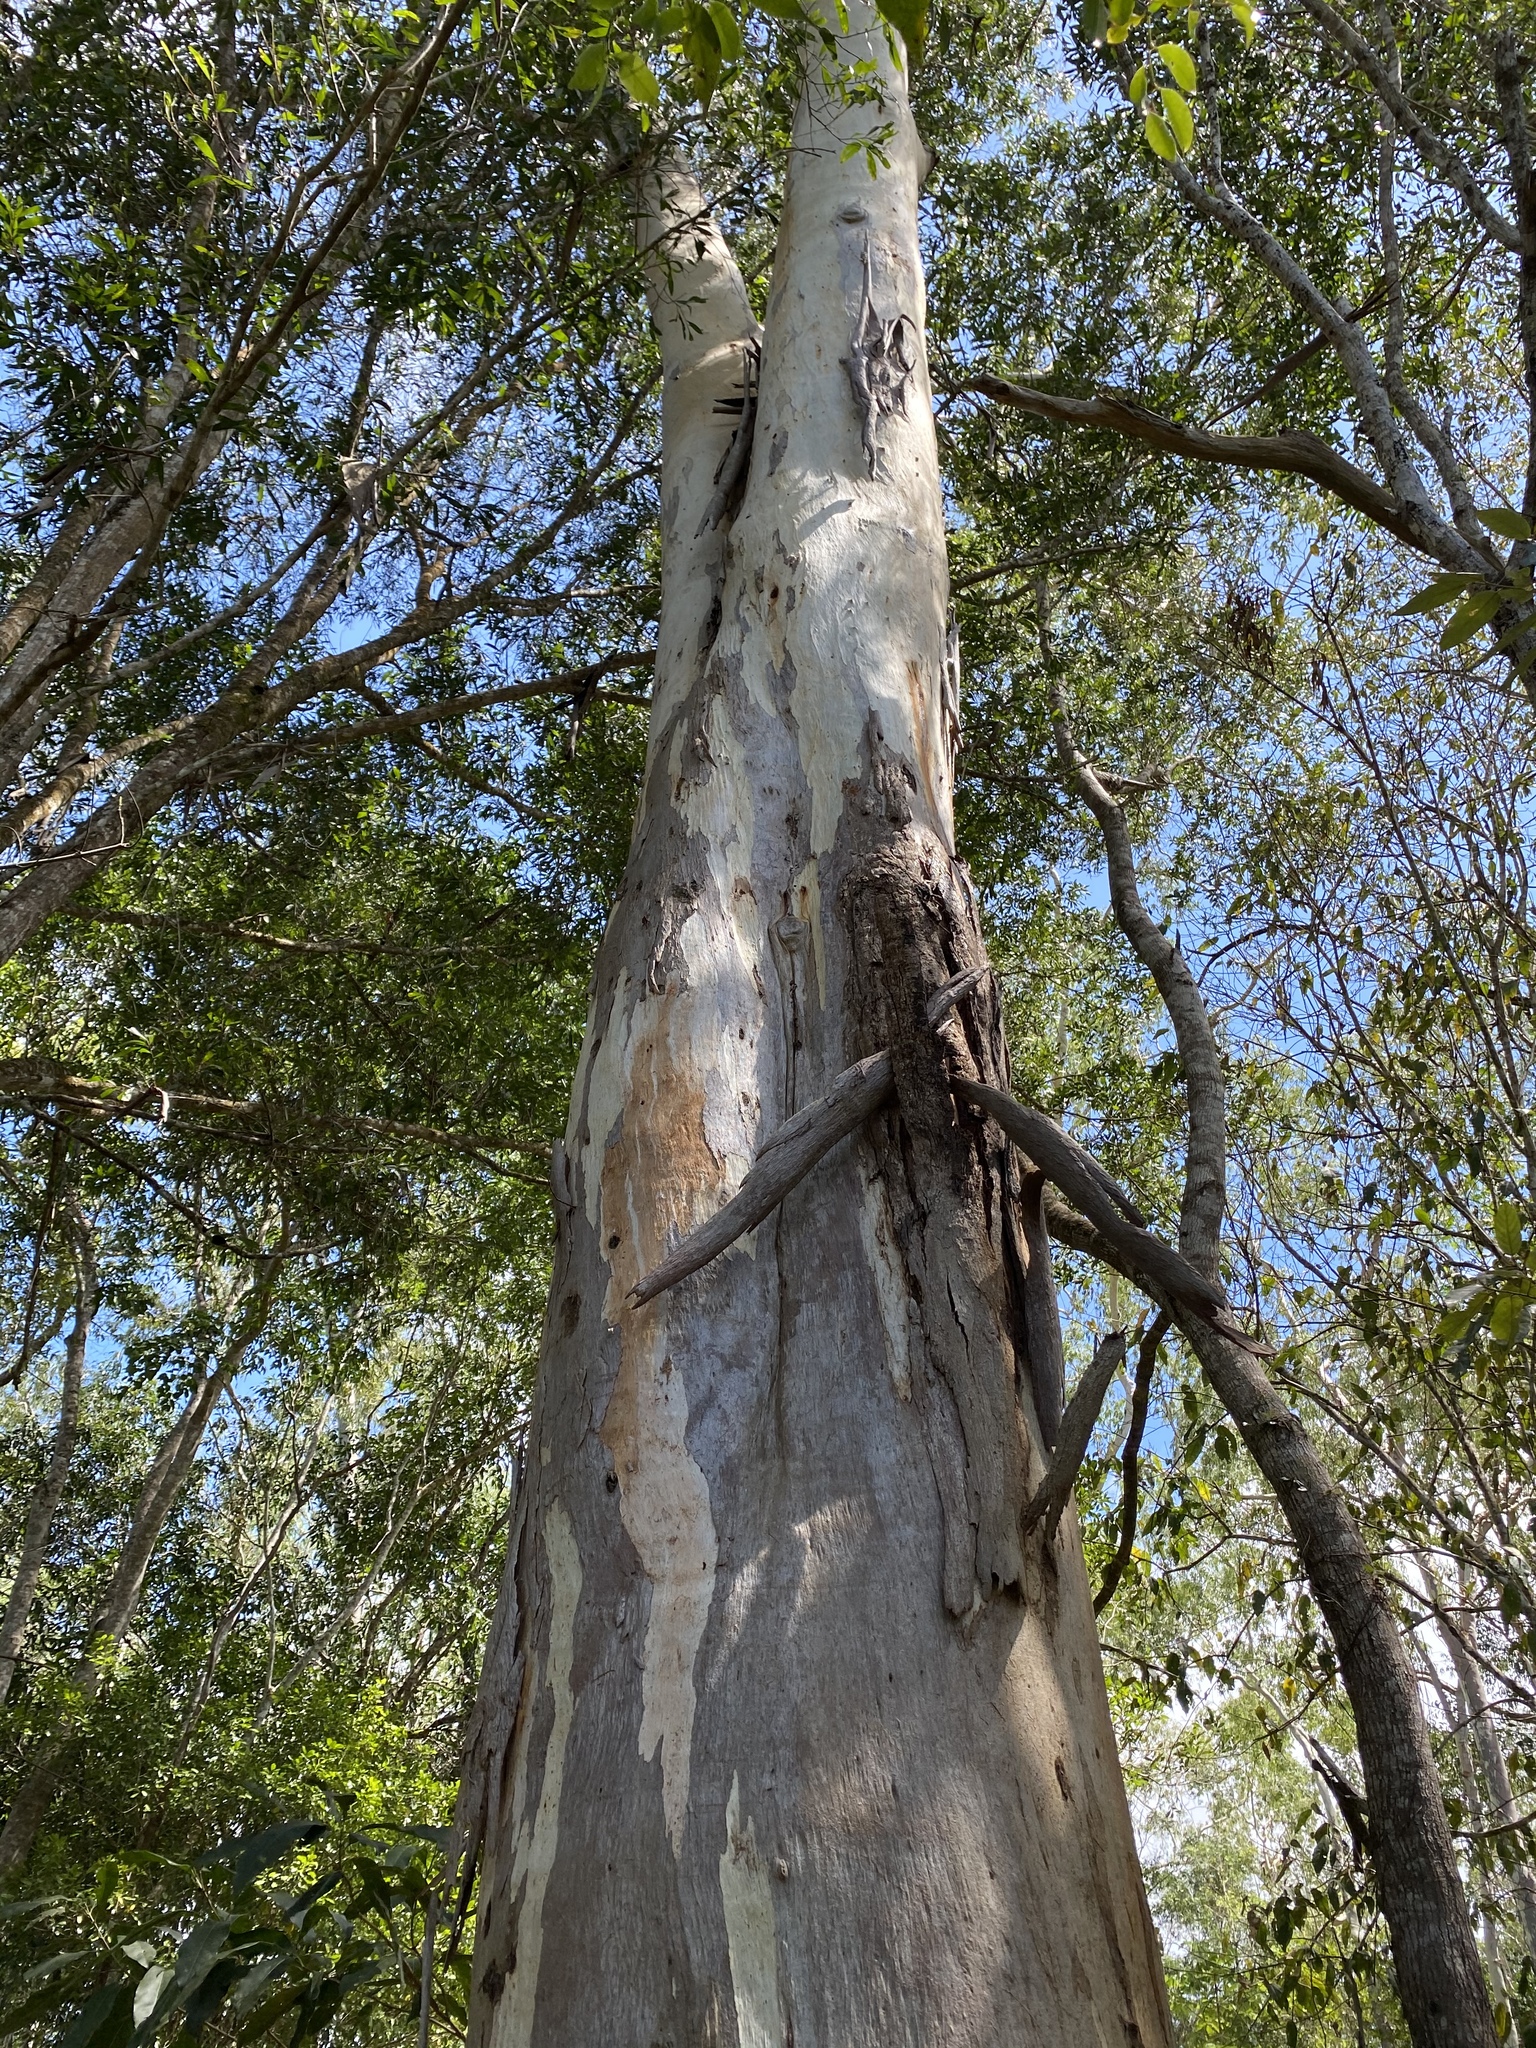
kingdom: Plantae
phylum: Tracheophyta
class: Magnoliopsida
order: Myrtales
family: Myrtaceae
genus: Eucalyptus
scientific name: Eucalyptus tereticornis
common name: Forest redgum
